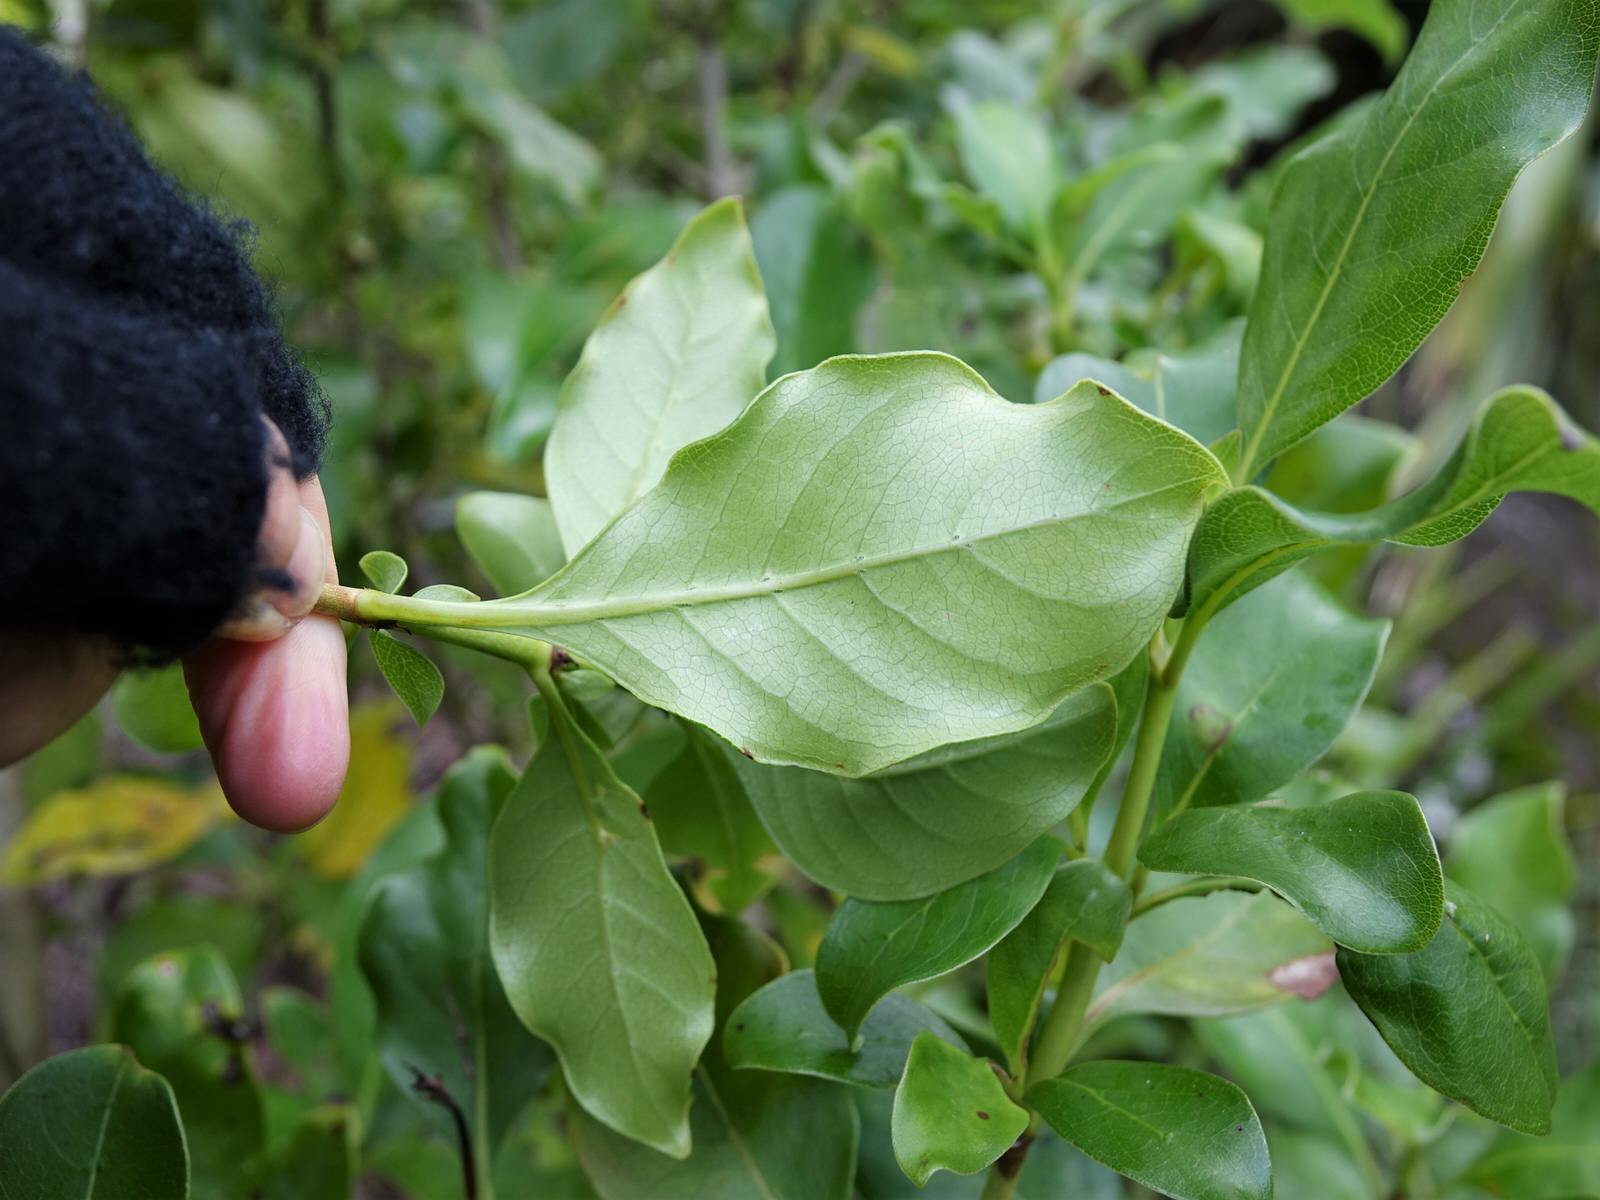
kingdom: Plantae
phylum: Tracheophyta
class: Magnoliopsida
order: Gentianales
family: Rubiaceae
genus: Coprosma
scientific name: Coprosma macrocarpa
